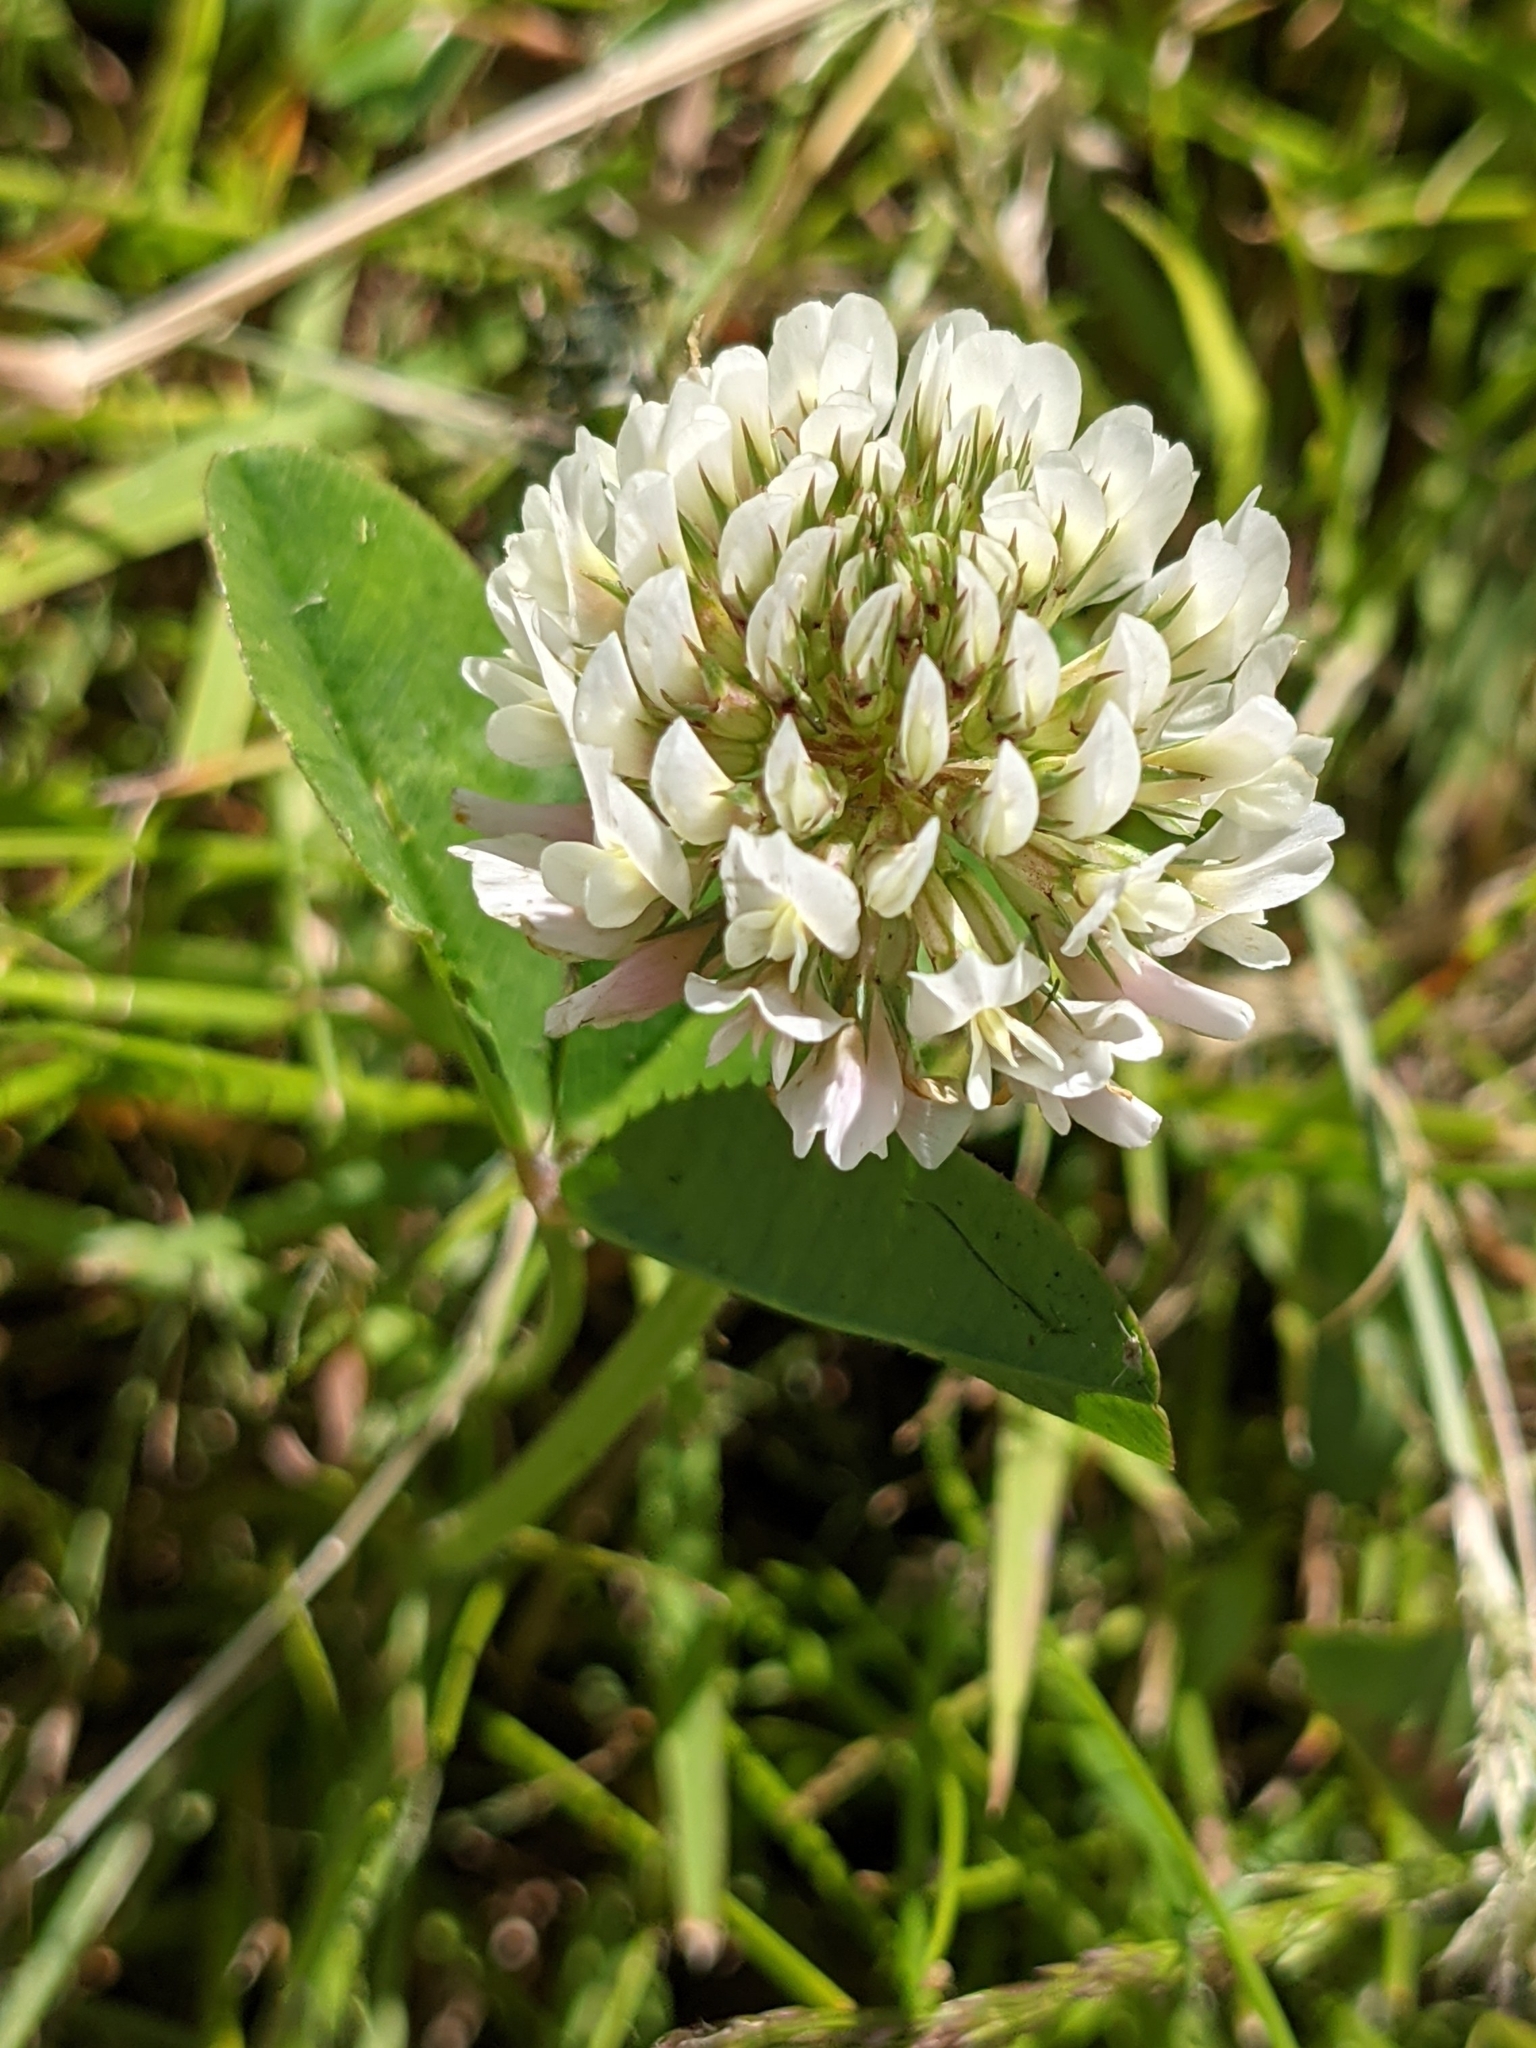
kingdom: Plantae
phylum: Tracheophyta
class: Magnoliopsida
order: Fabales
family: Fabaceae
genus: Trifolium
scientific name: Trifolium repens
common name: White clover
